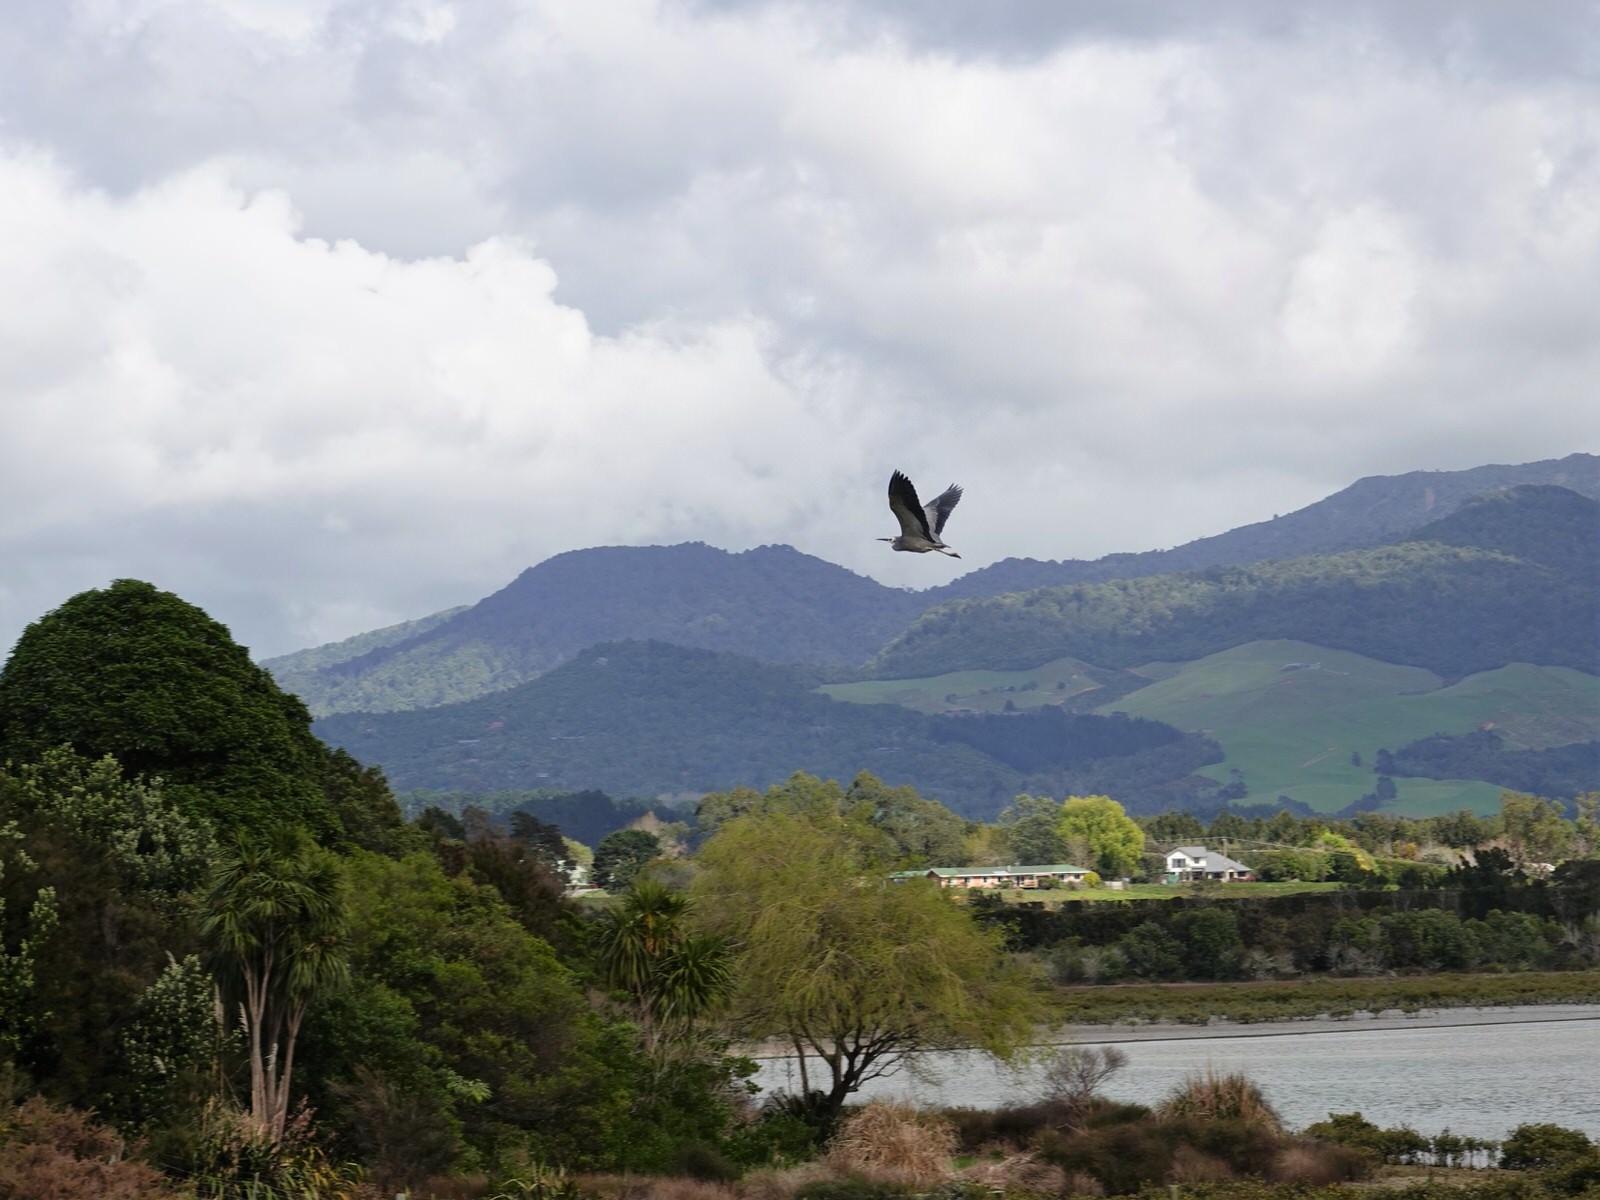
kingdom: Animalia
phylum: Chordata
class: Aves
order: Pelecaniformes
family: Ardeidae
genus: Egretta
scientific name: Egretta novaehollandiae
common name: White-faced heron
